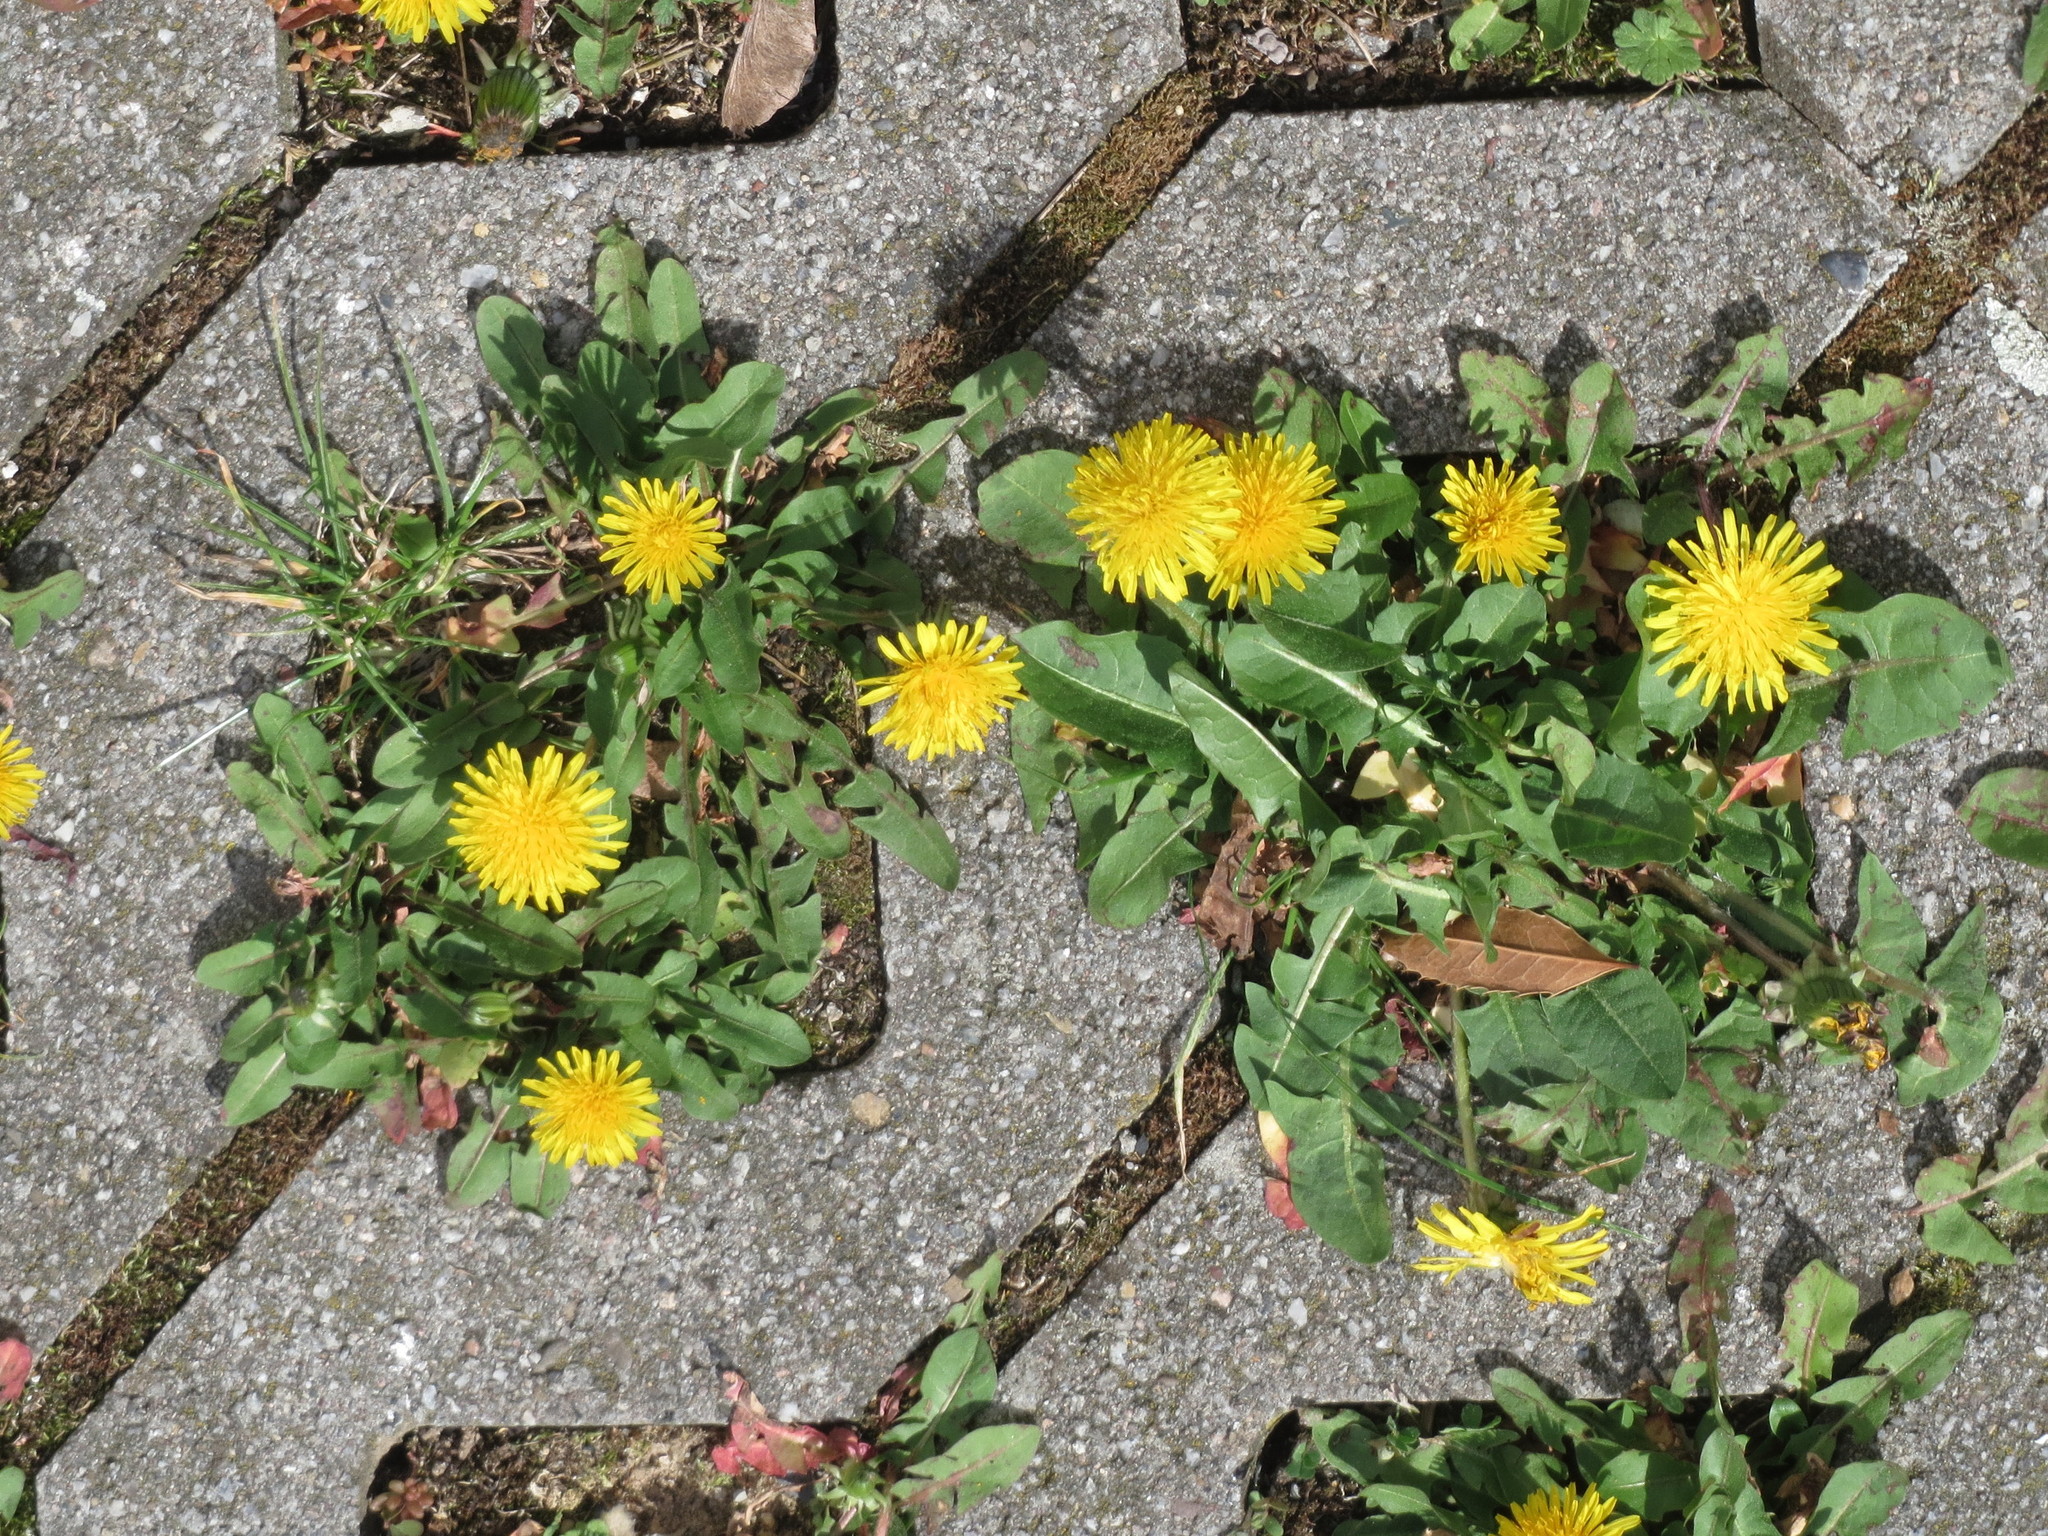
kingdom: Plantae
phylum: Tracheophyta
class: Magnoliopsida
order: Asterales
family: Asteraceae
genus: Taraxacum
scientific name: Taraxacum officinale
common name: Common dandelion
